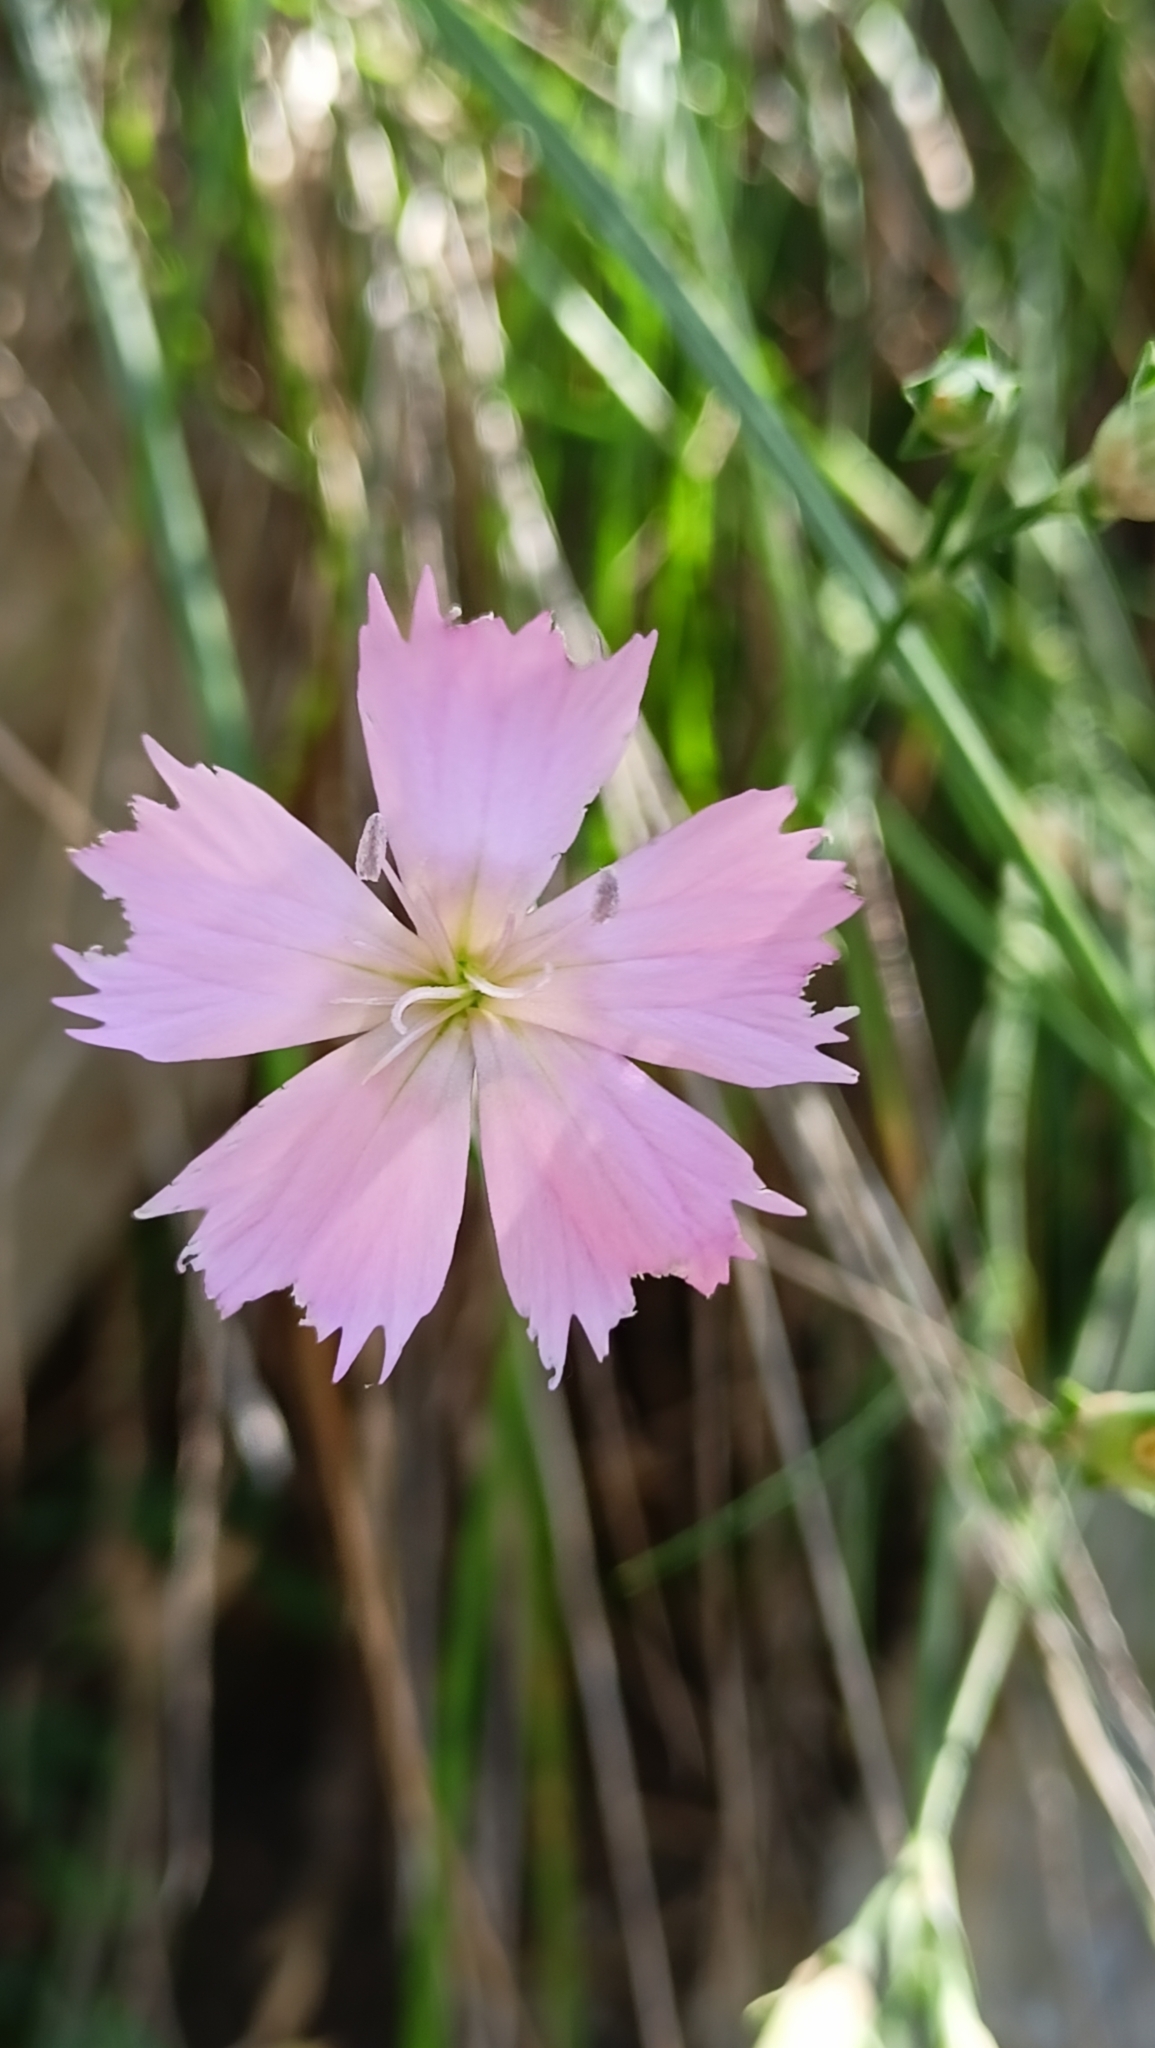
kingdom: Plantae
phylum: Tracheophyta
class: Magnoliopsida
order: Caryophyllales
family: Caryophyllaceae
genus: Dianthus
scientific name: Dianthus sylvestris
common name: Wood pink
